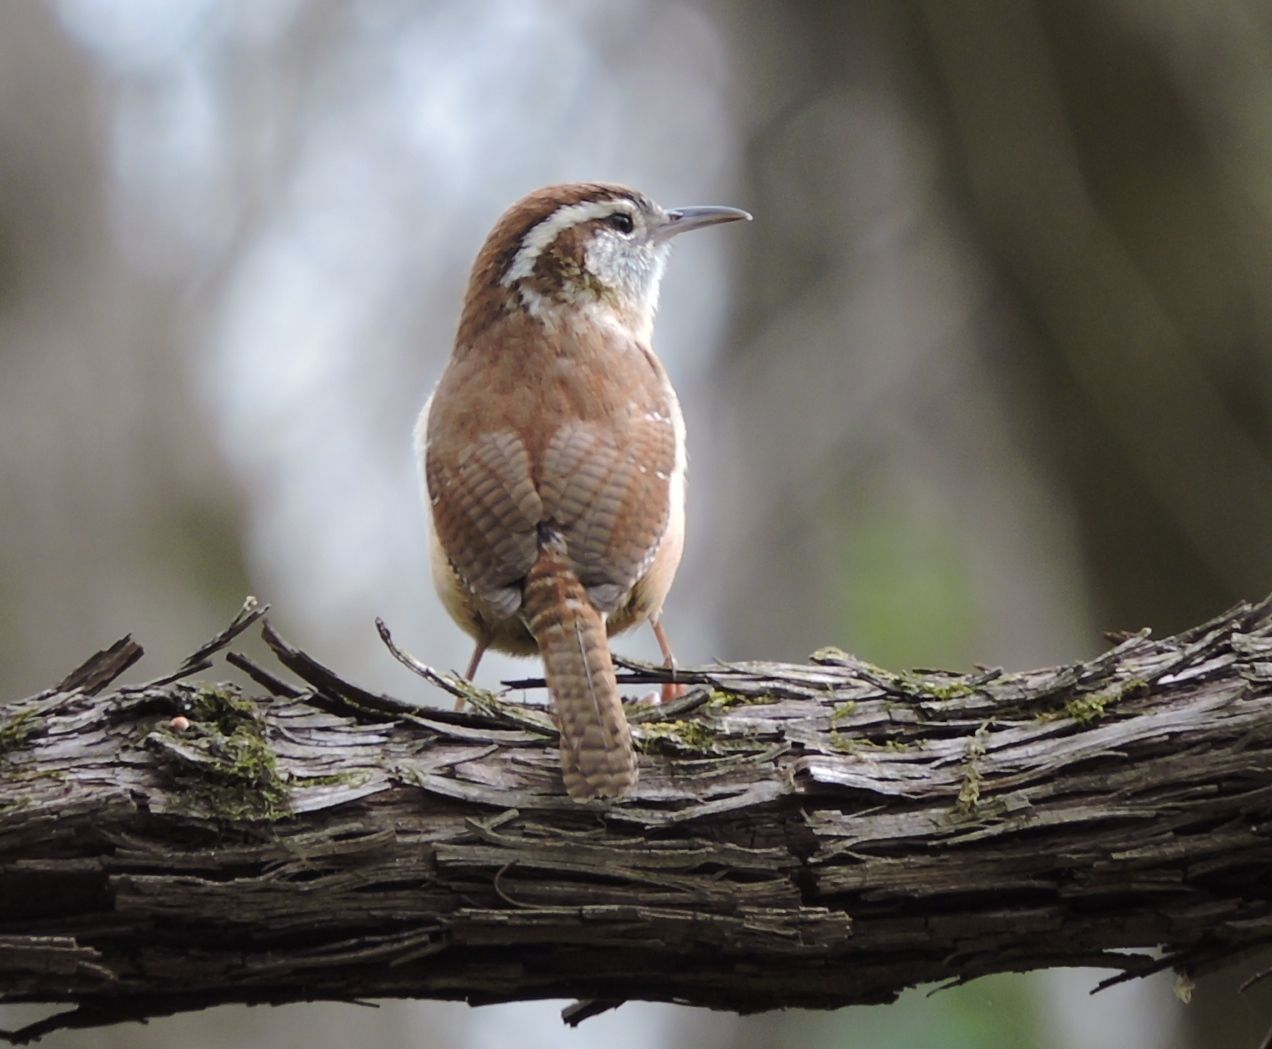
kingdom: Animalia
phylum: Chordata
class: Aves
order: Passeriformes
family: Troglodytidae
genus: Thryothorus
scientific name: Thryothorus ludovicianus
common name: Carolina wren
